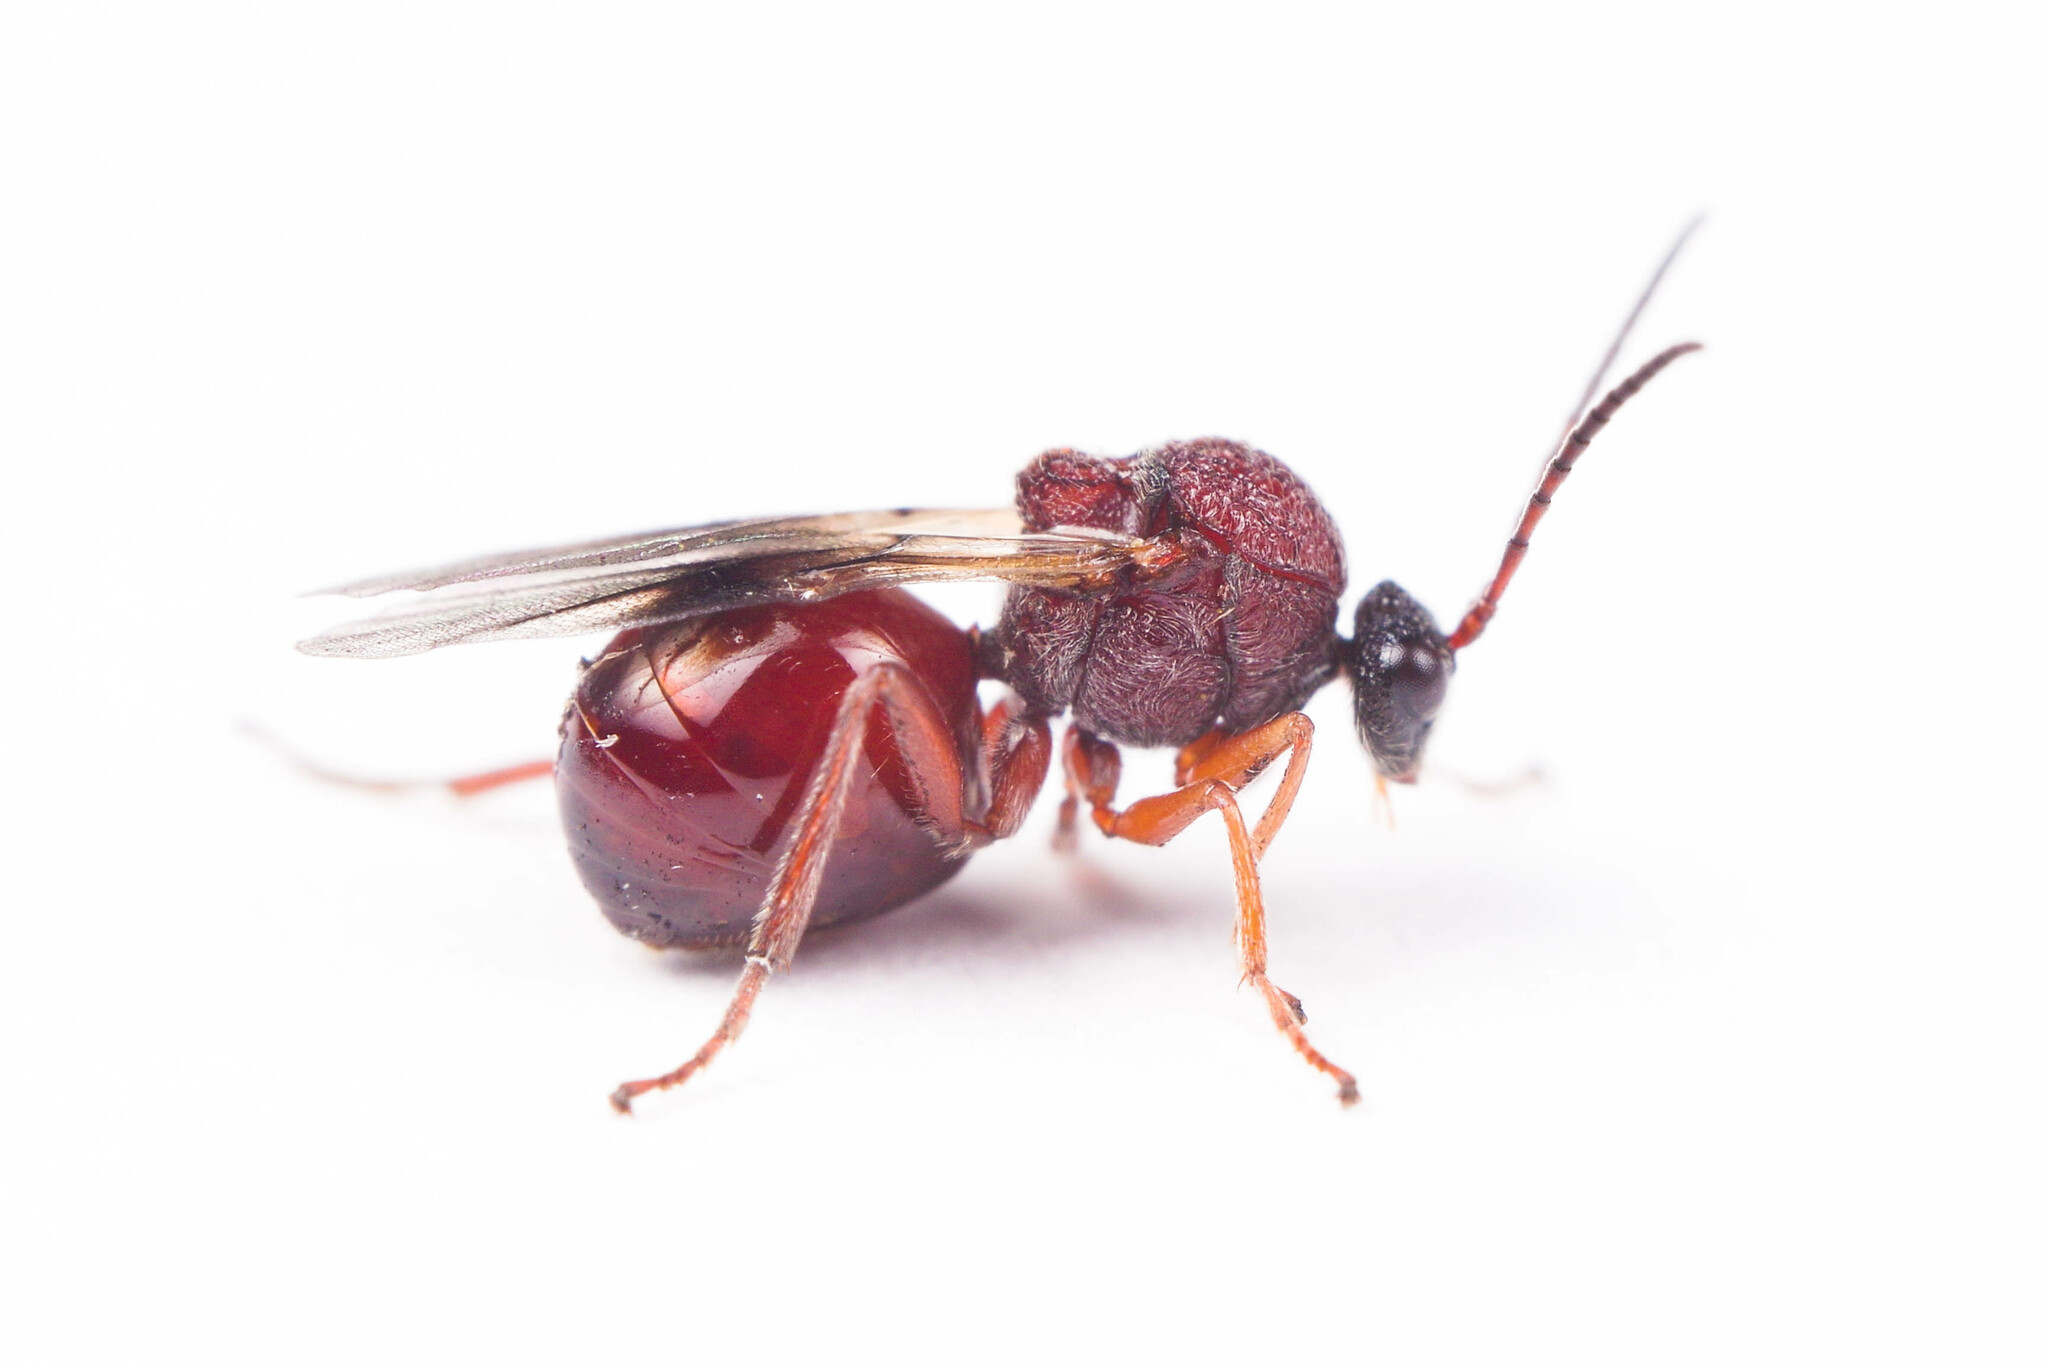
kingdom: Animalia
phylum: Arthropoda
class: Insecta
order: Hymenoptera
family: Cynipidae
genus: Amphibolips
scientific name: Amphibolips
